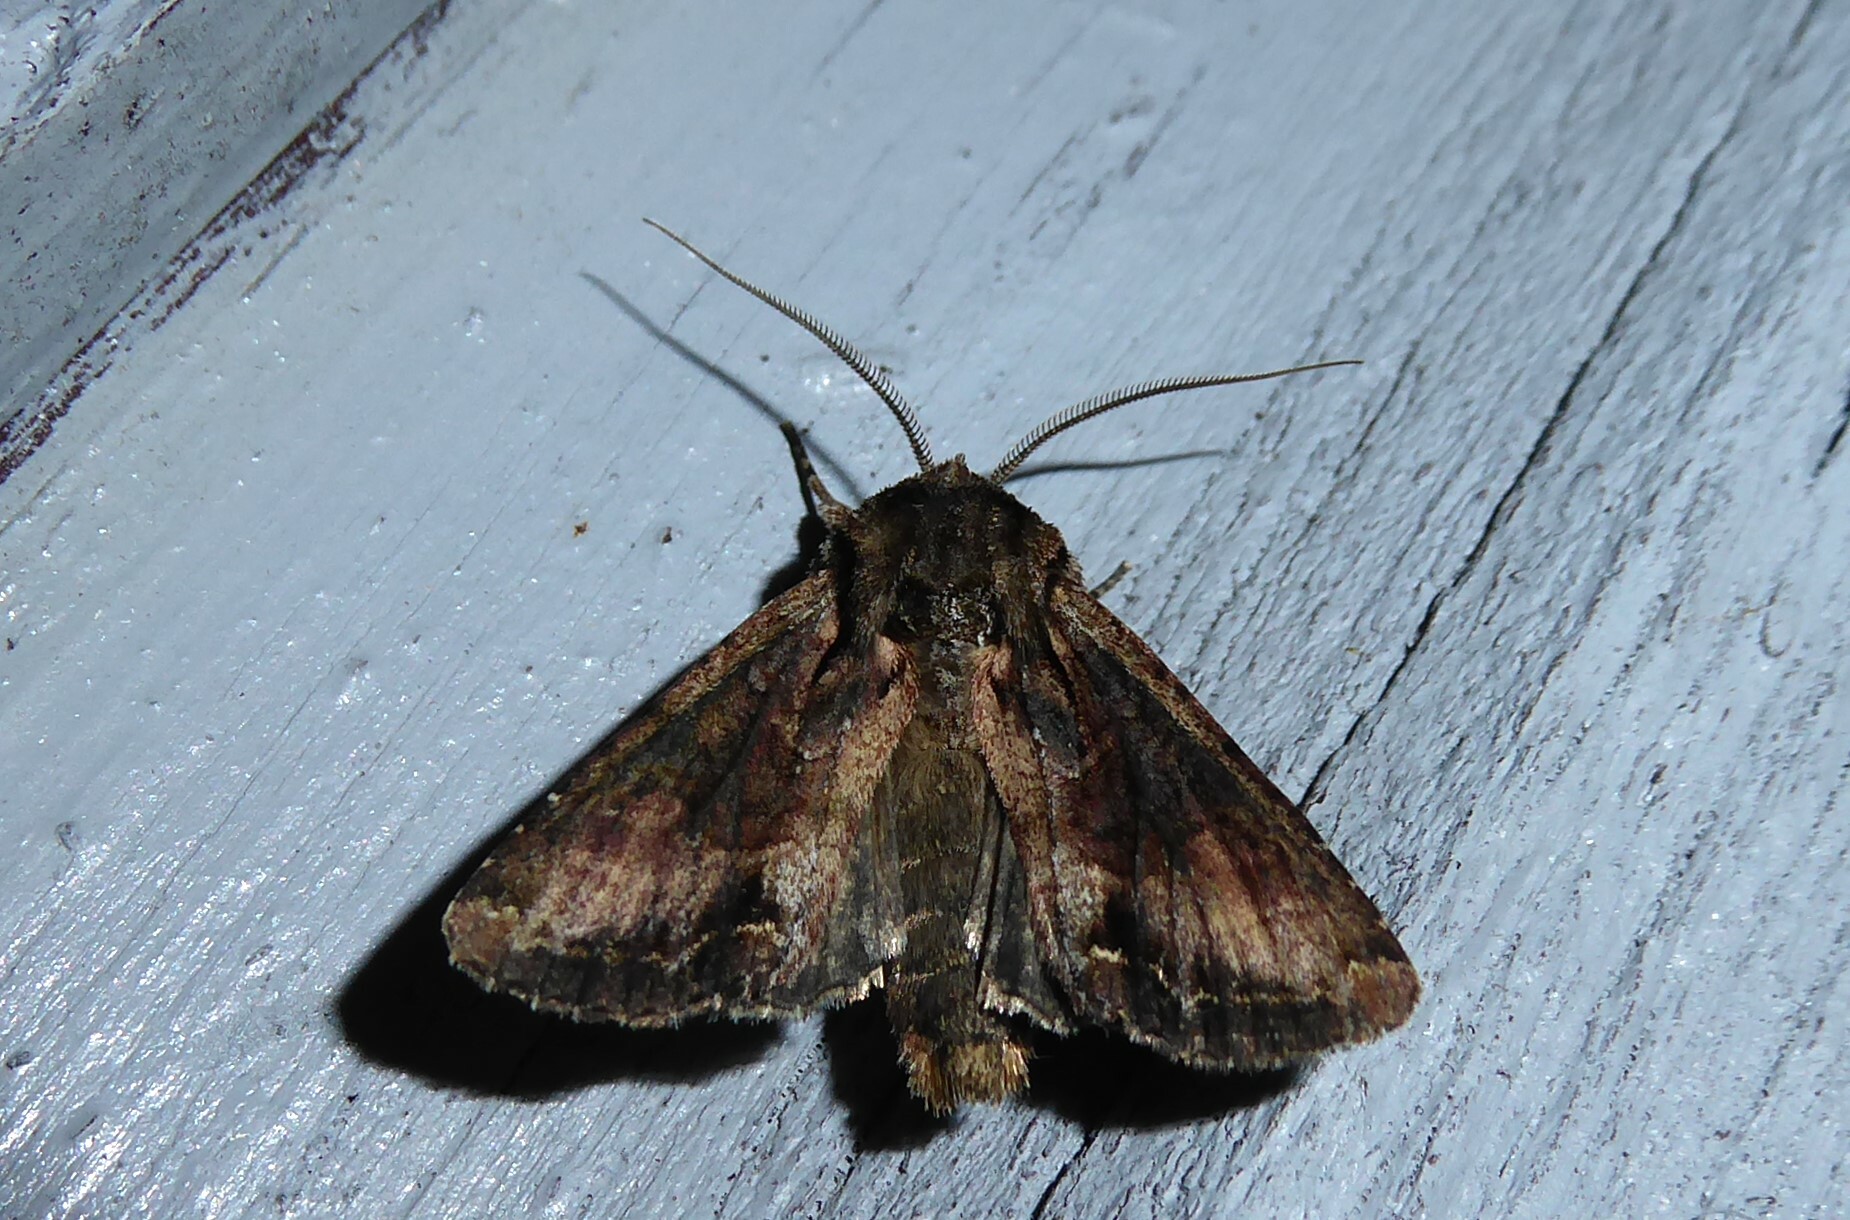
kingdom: Animalia
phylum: Arthropoda
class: Insecta
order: Lepidoptera
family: Noctuidae
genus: Ichneutica
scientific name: Ichneutica mutans
